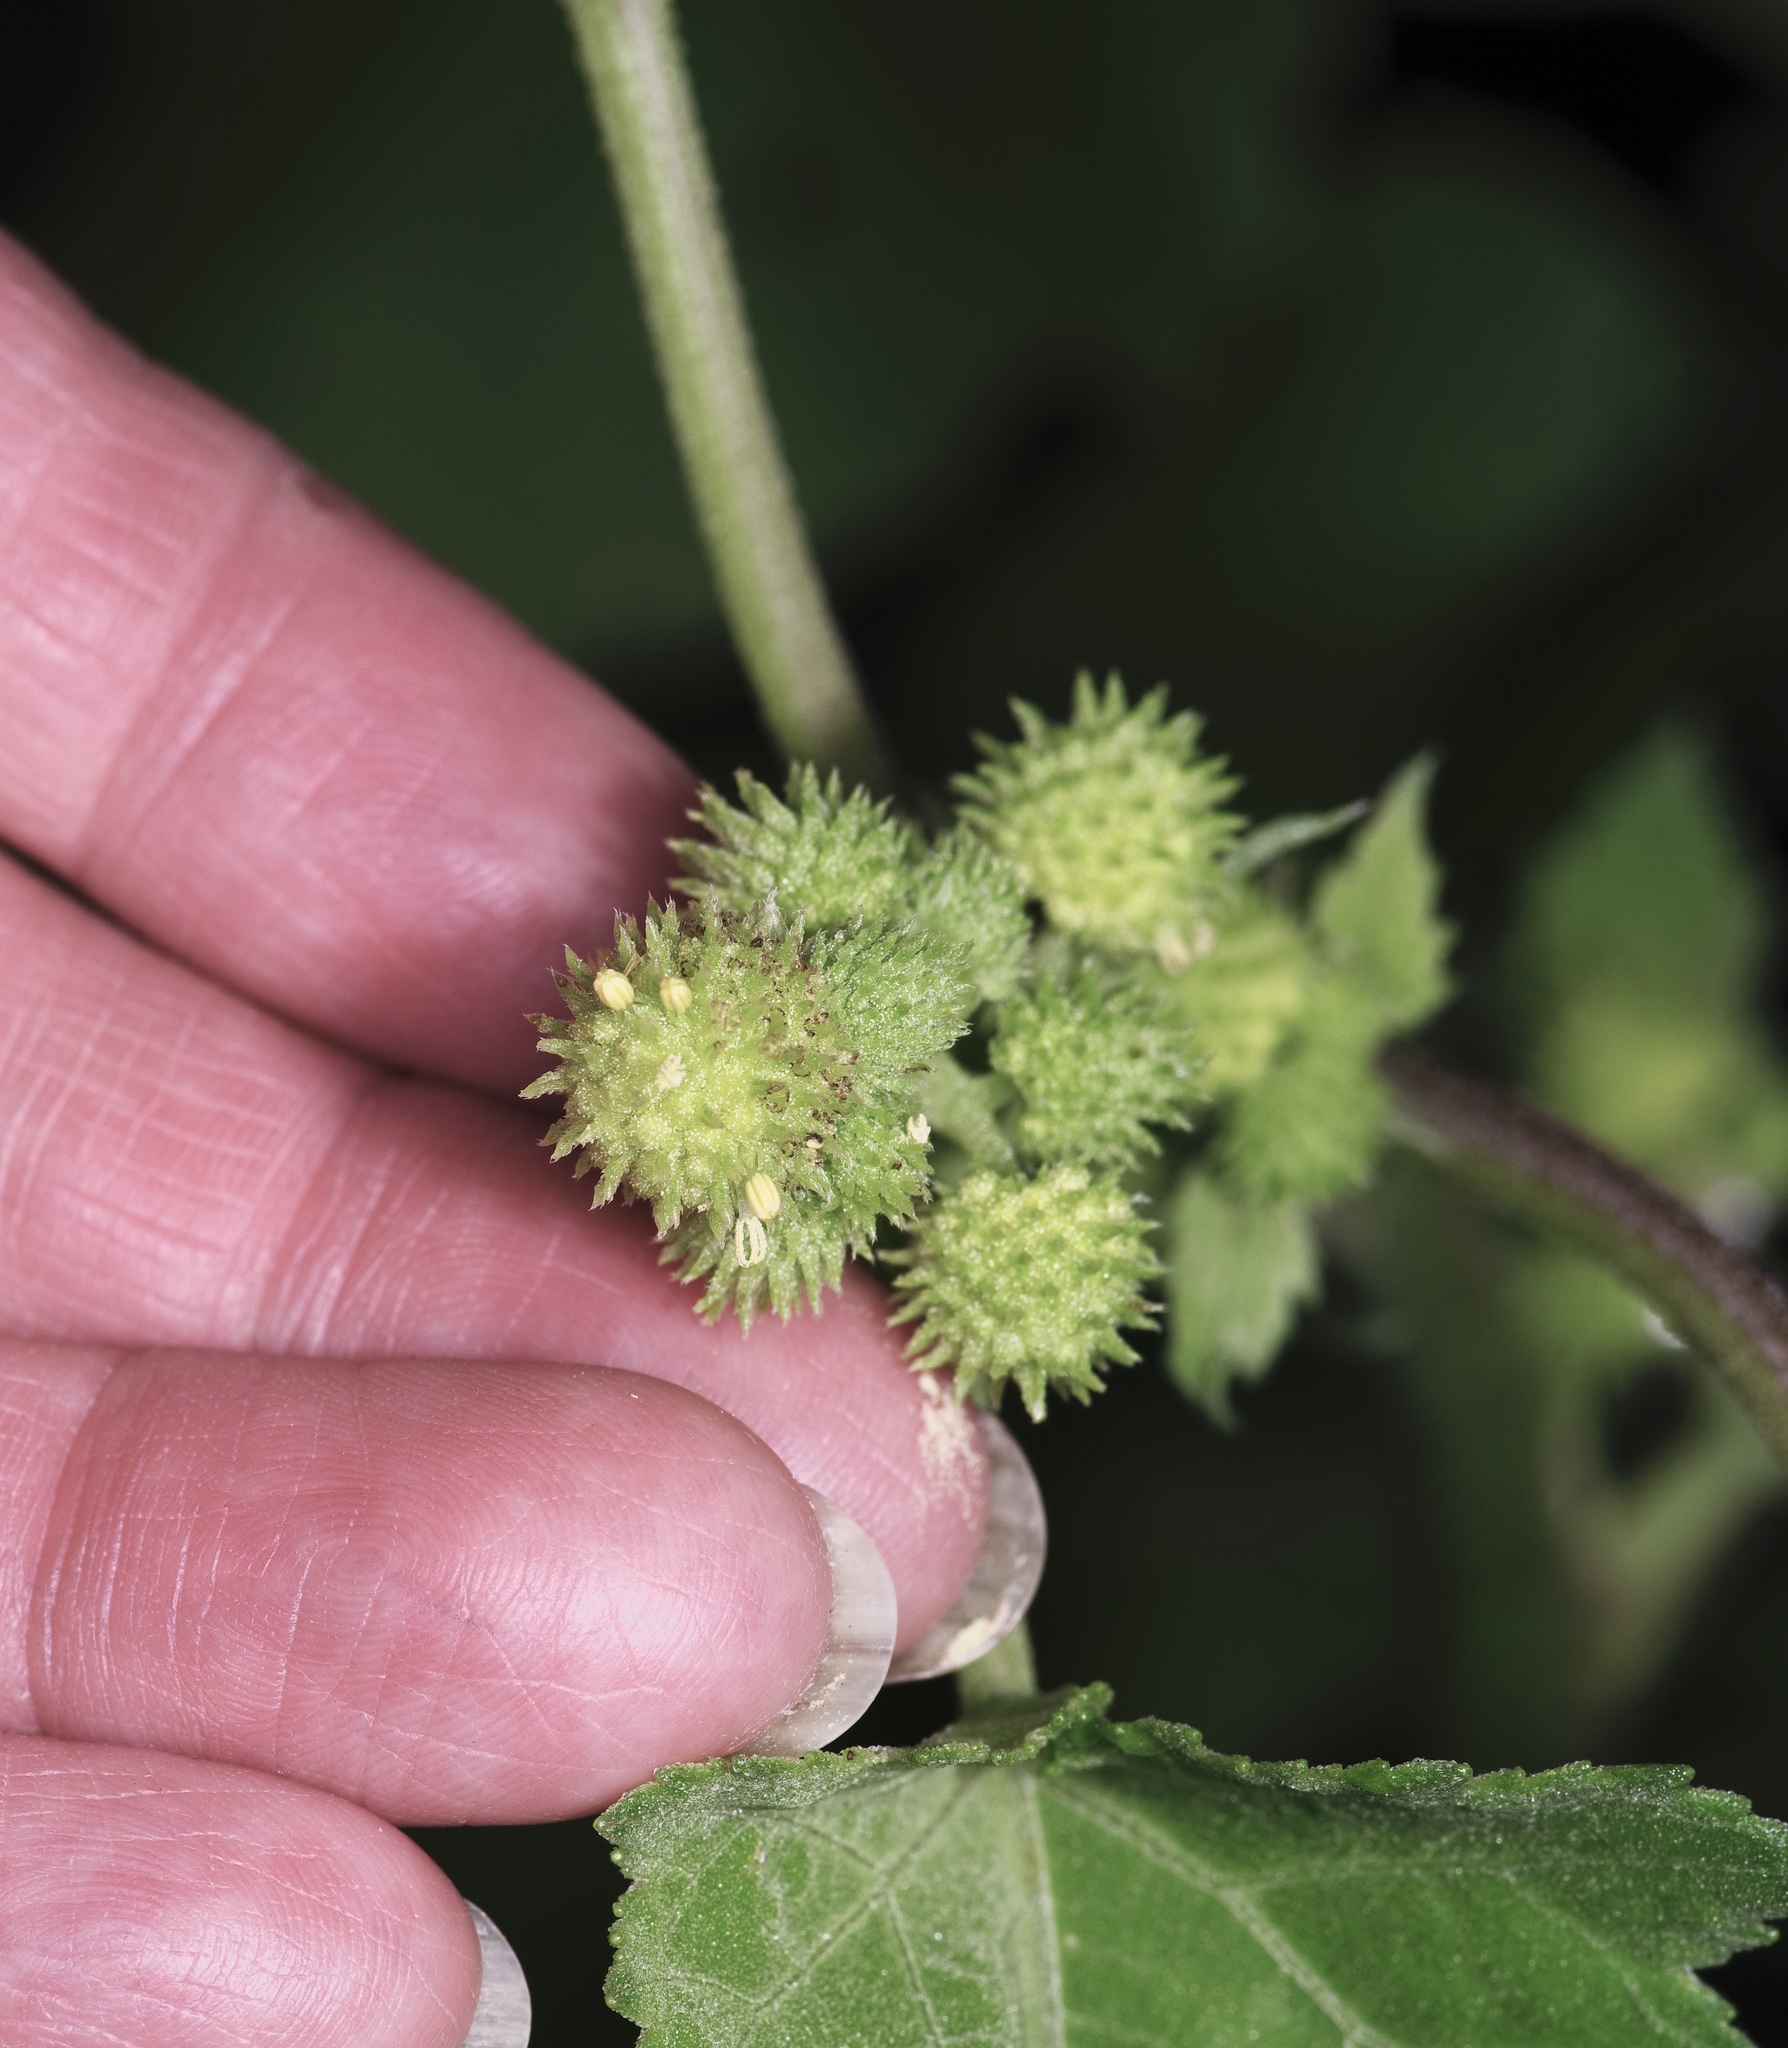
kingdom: Plantae
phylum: Tracheophyta
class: Magnoliopsida
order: Asterales
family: Asteraceae
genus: Xanthium
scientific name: Xanthium strumarium
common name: Rough cocklebur
